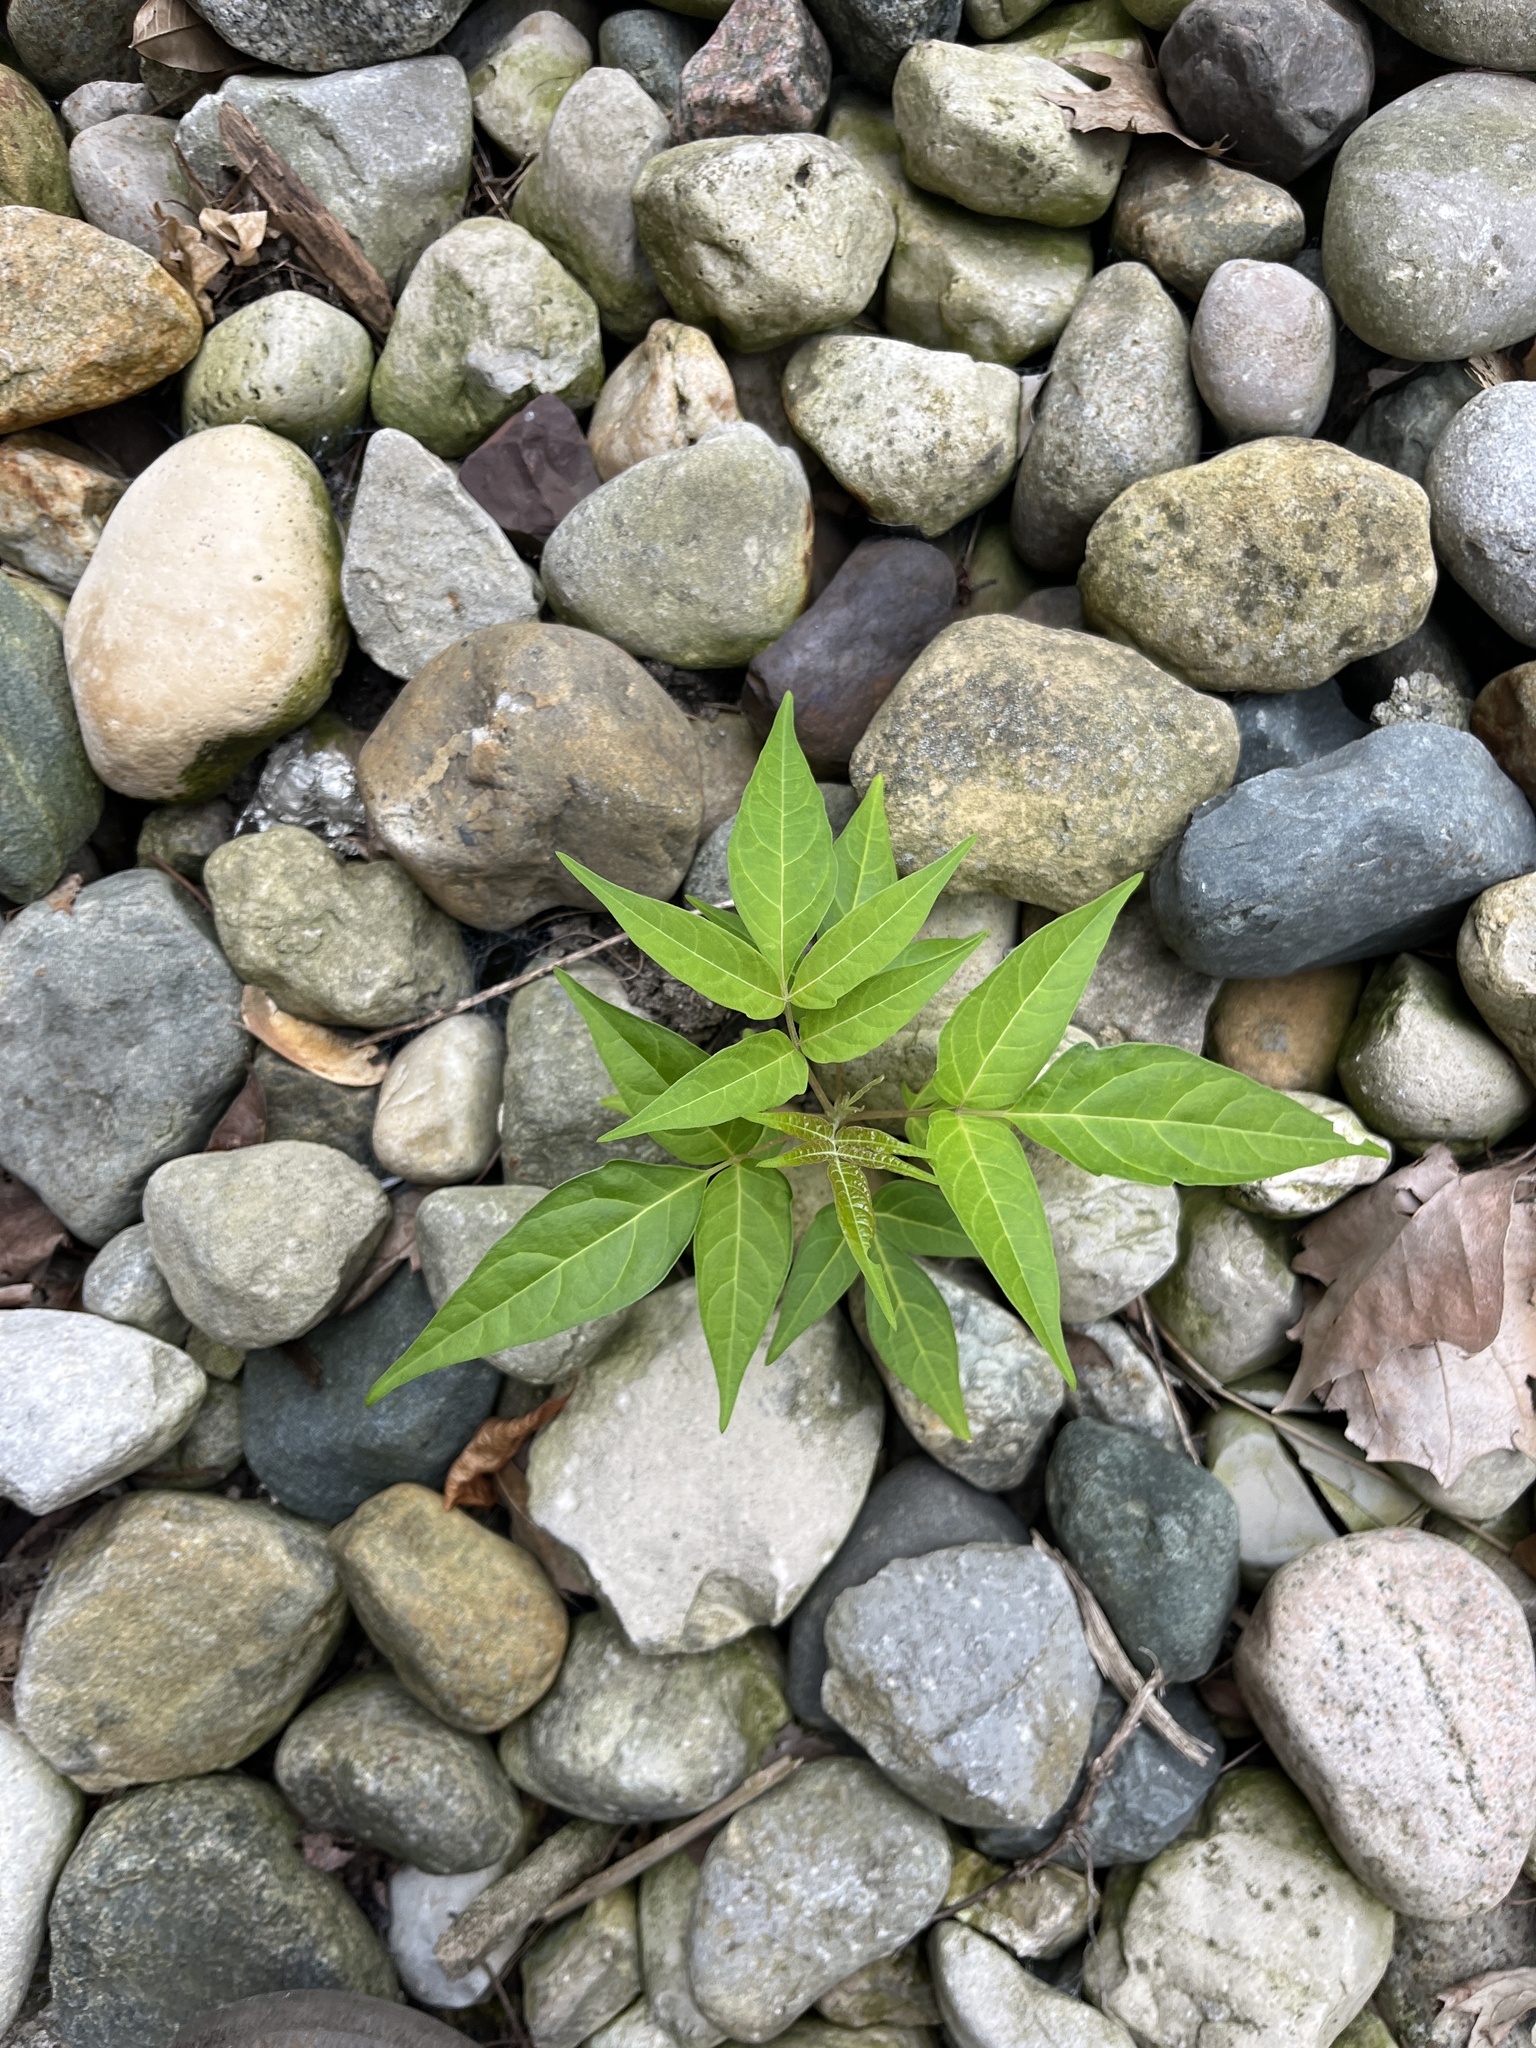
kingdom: Plantae
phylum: Tracheophyta
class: Magnoliopsida
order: Sapindales
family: Simaroubaceae
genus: Ailanthus
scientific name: Ailanthus altissima
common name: Tree-of-heaven
